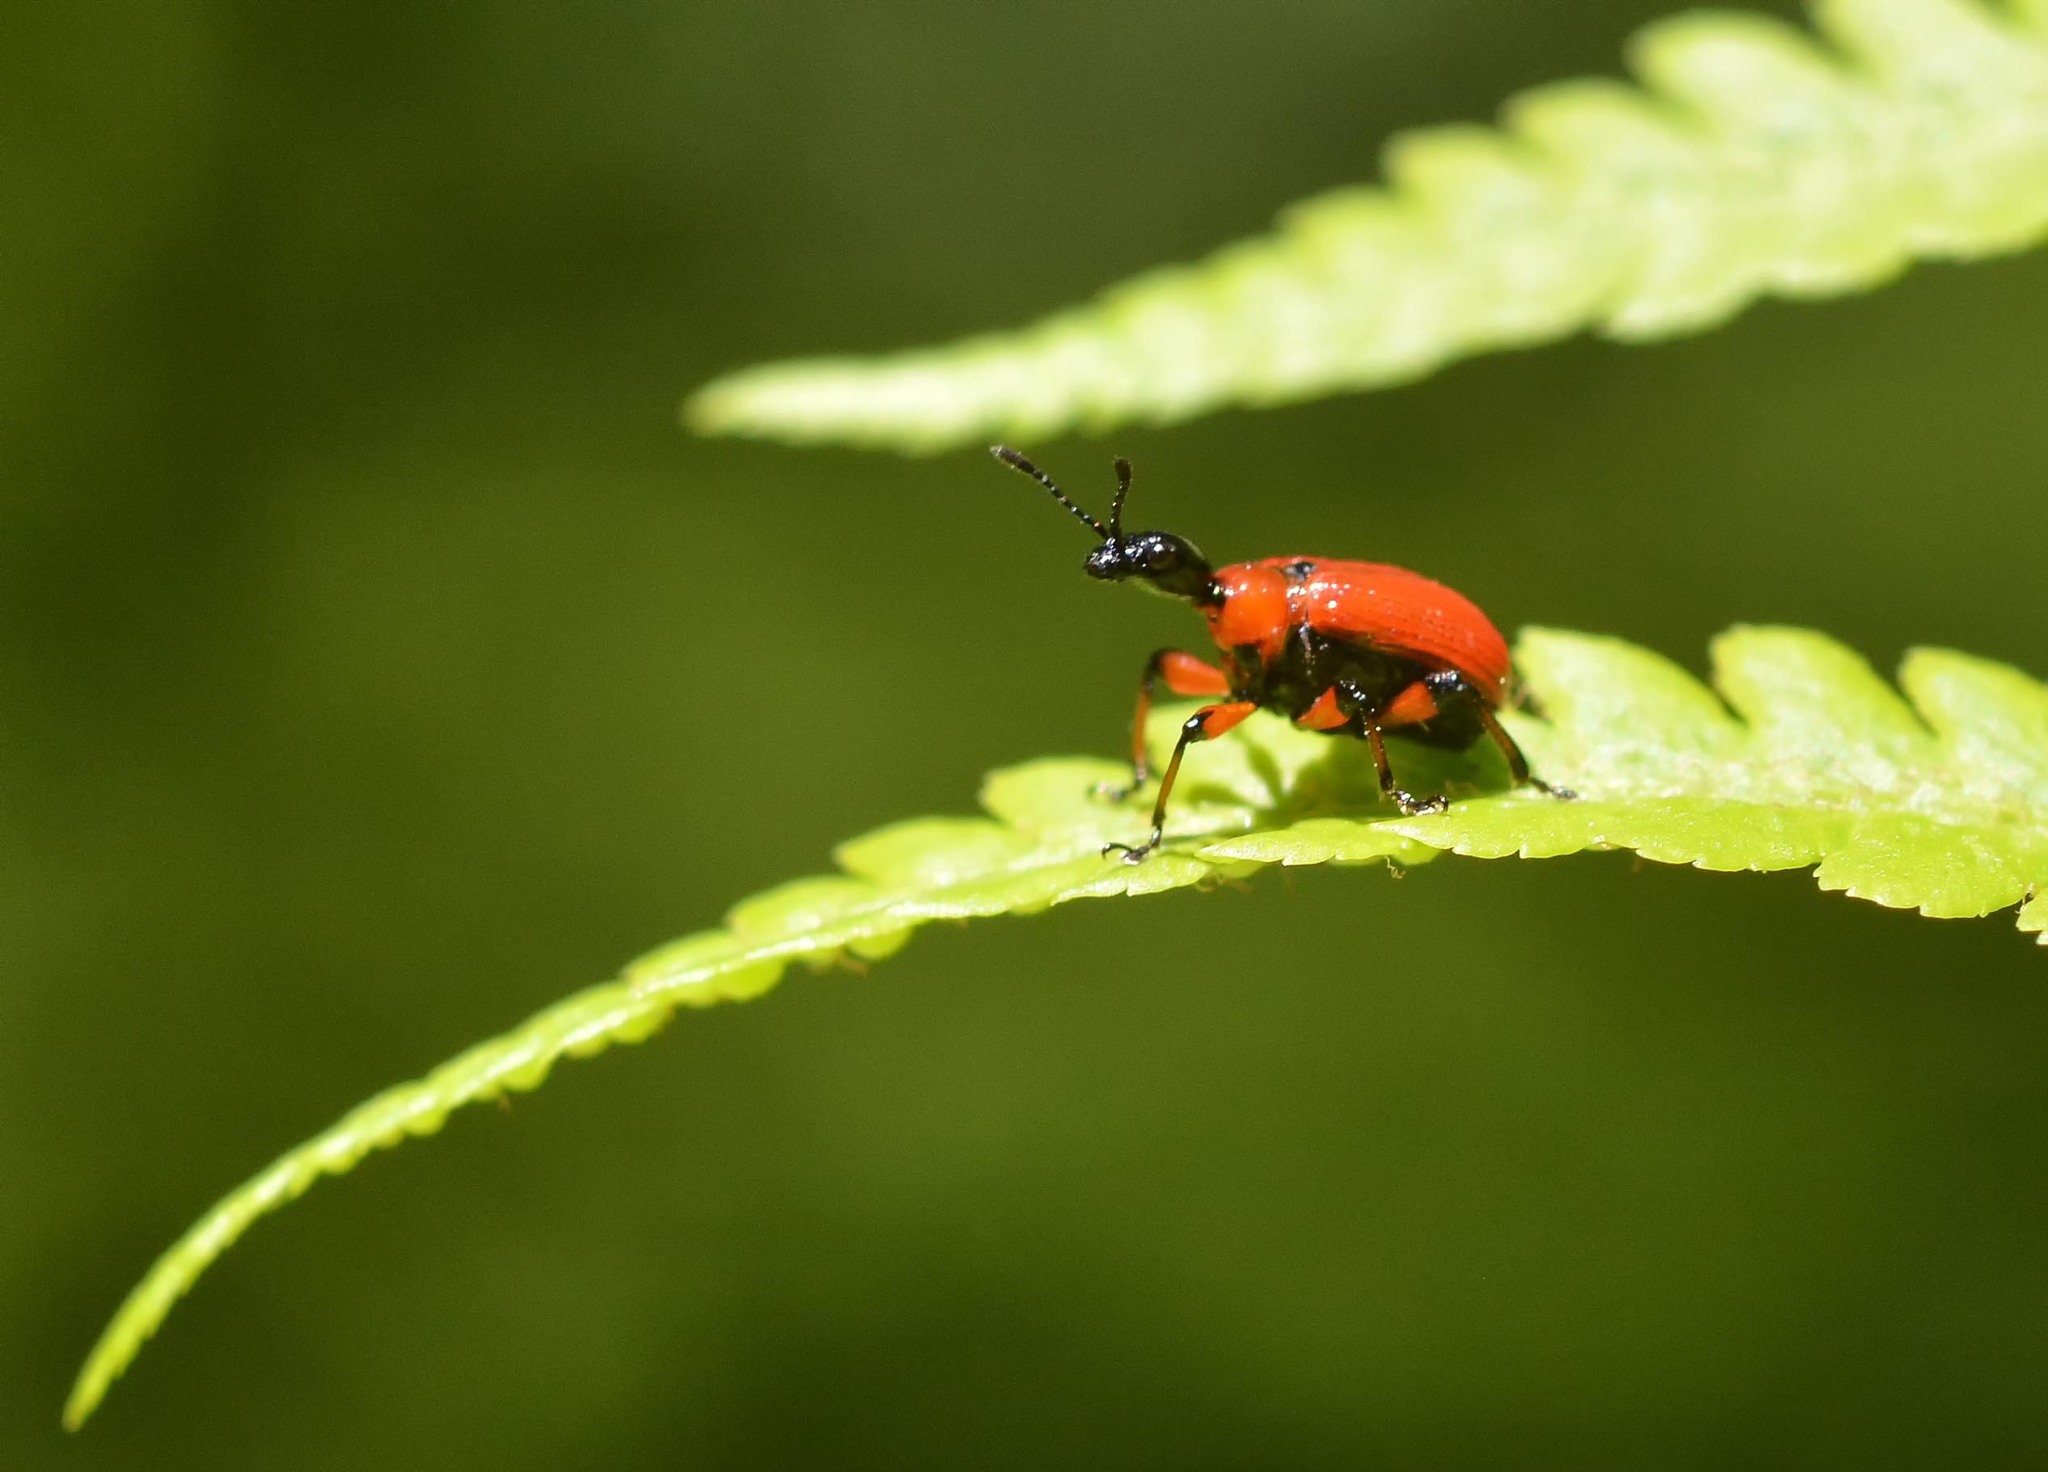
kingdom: Animalia
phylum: Arthropoda
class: Insecta
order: Coleoptera
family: Attelabidae
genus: Apoderus
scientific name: Apoderus coryli
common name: Hazel leaf roller
